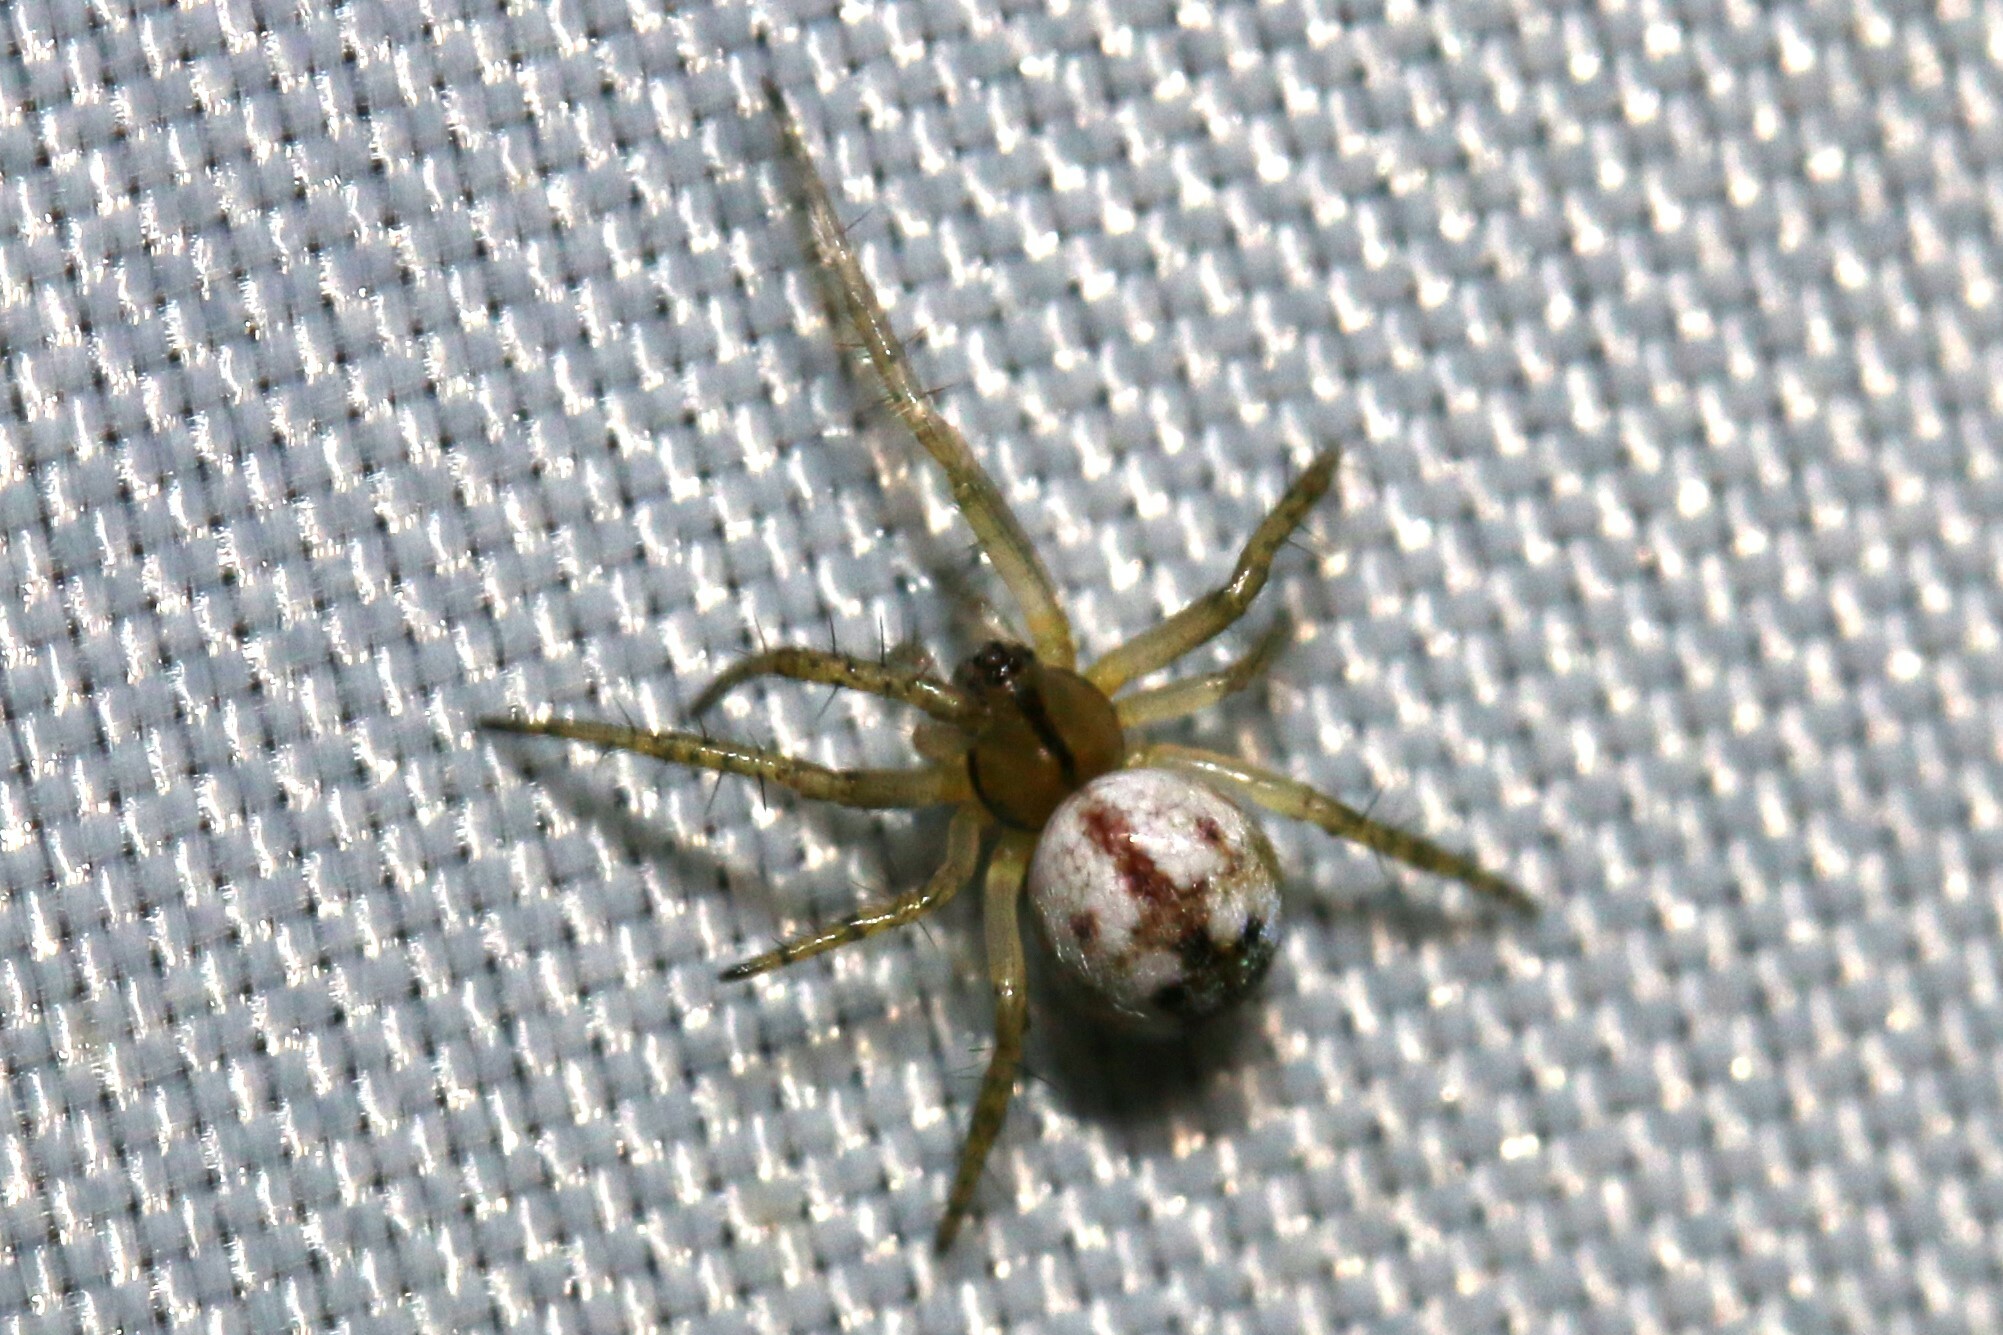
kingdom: Animalia
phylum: Arthropoda
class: Arachnida
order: Araneae
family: Araneidae
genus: Mangora
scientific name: Mangora acalypha
